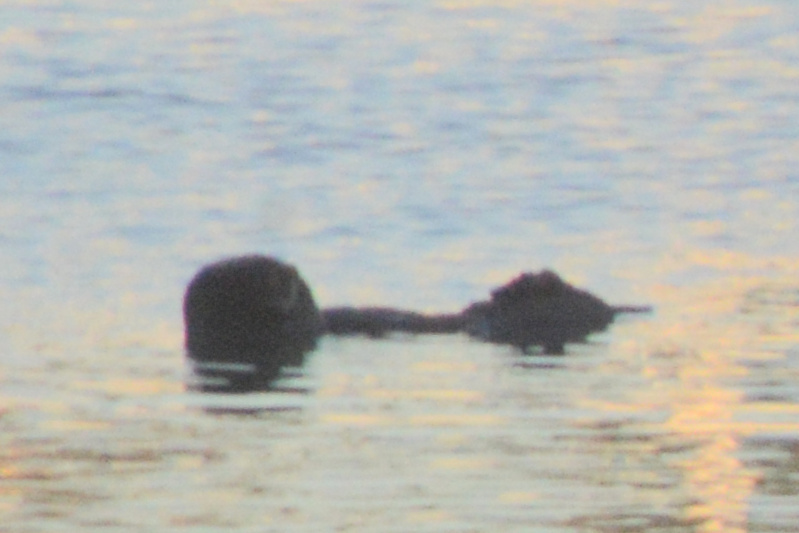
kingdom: Animalia
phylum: Chordata
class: Mammalia
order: Carnivora
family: Mustelidae
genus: Enhydra
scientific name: Enhydra lutris
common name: Sea otter
